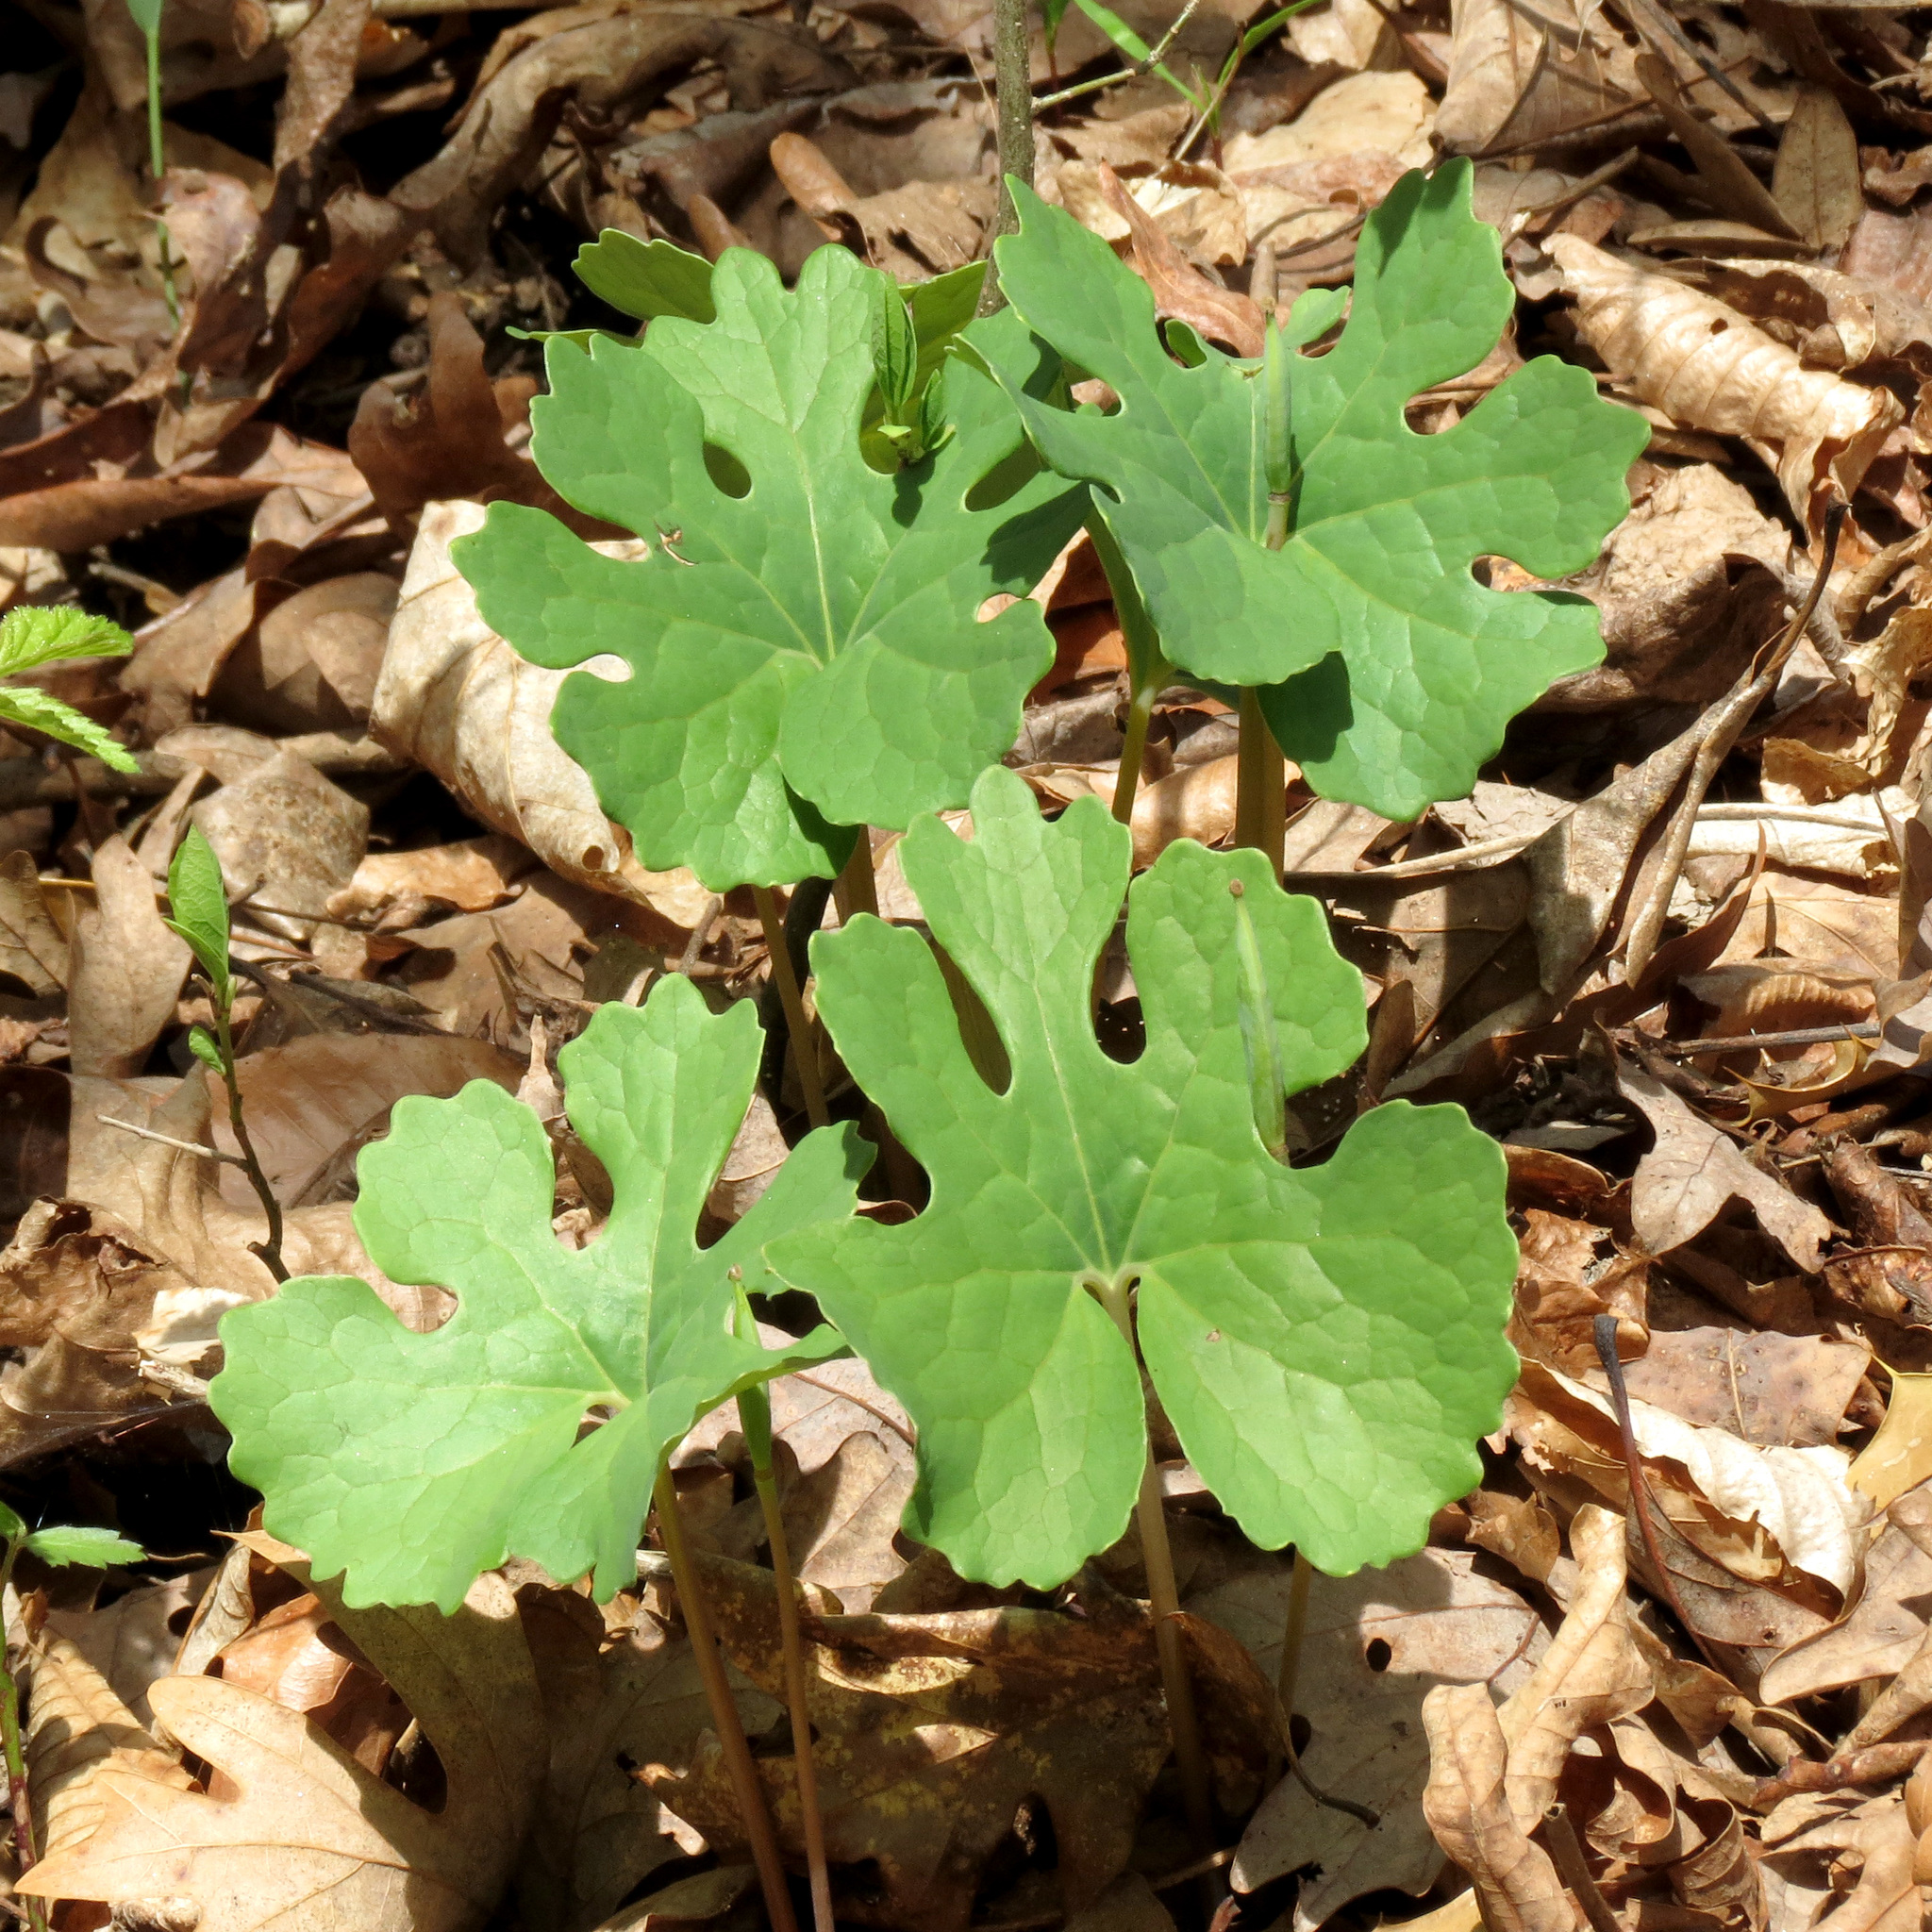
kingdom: Plantae
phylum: Tracheophyta
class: Magnoliopsida
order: Ranunculales
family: Papaveraceae
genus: Sanguinaria
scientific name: Sanguinaria canadensis
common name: Bloodroot
